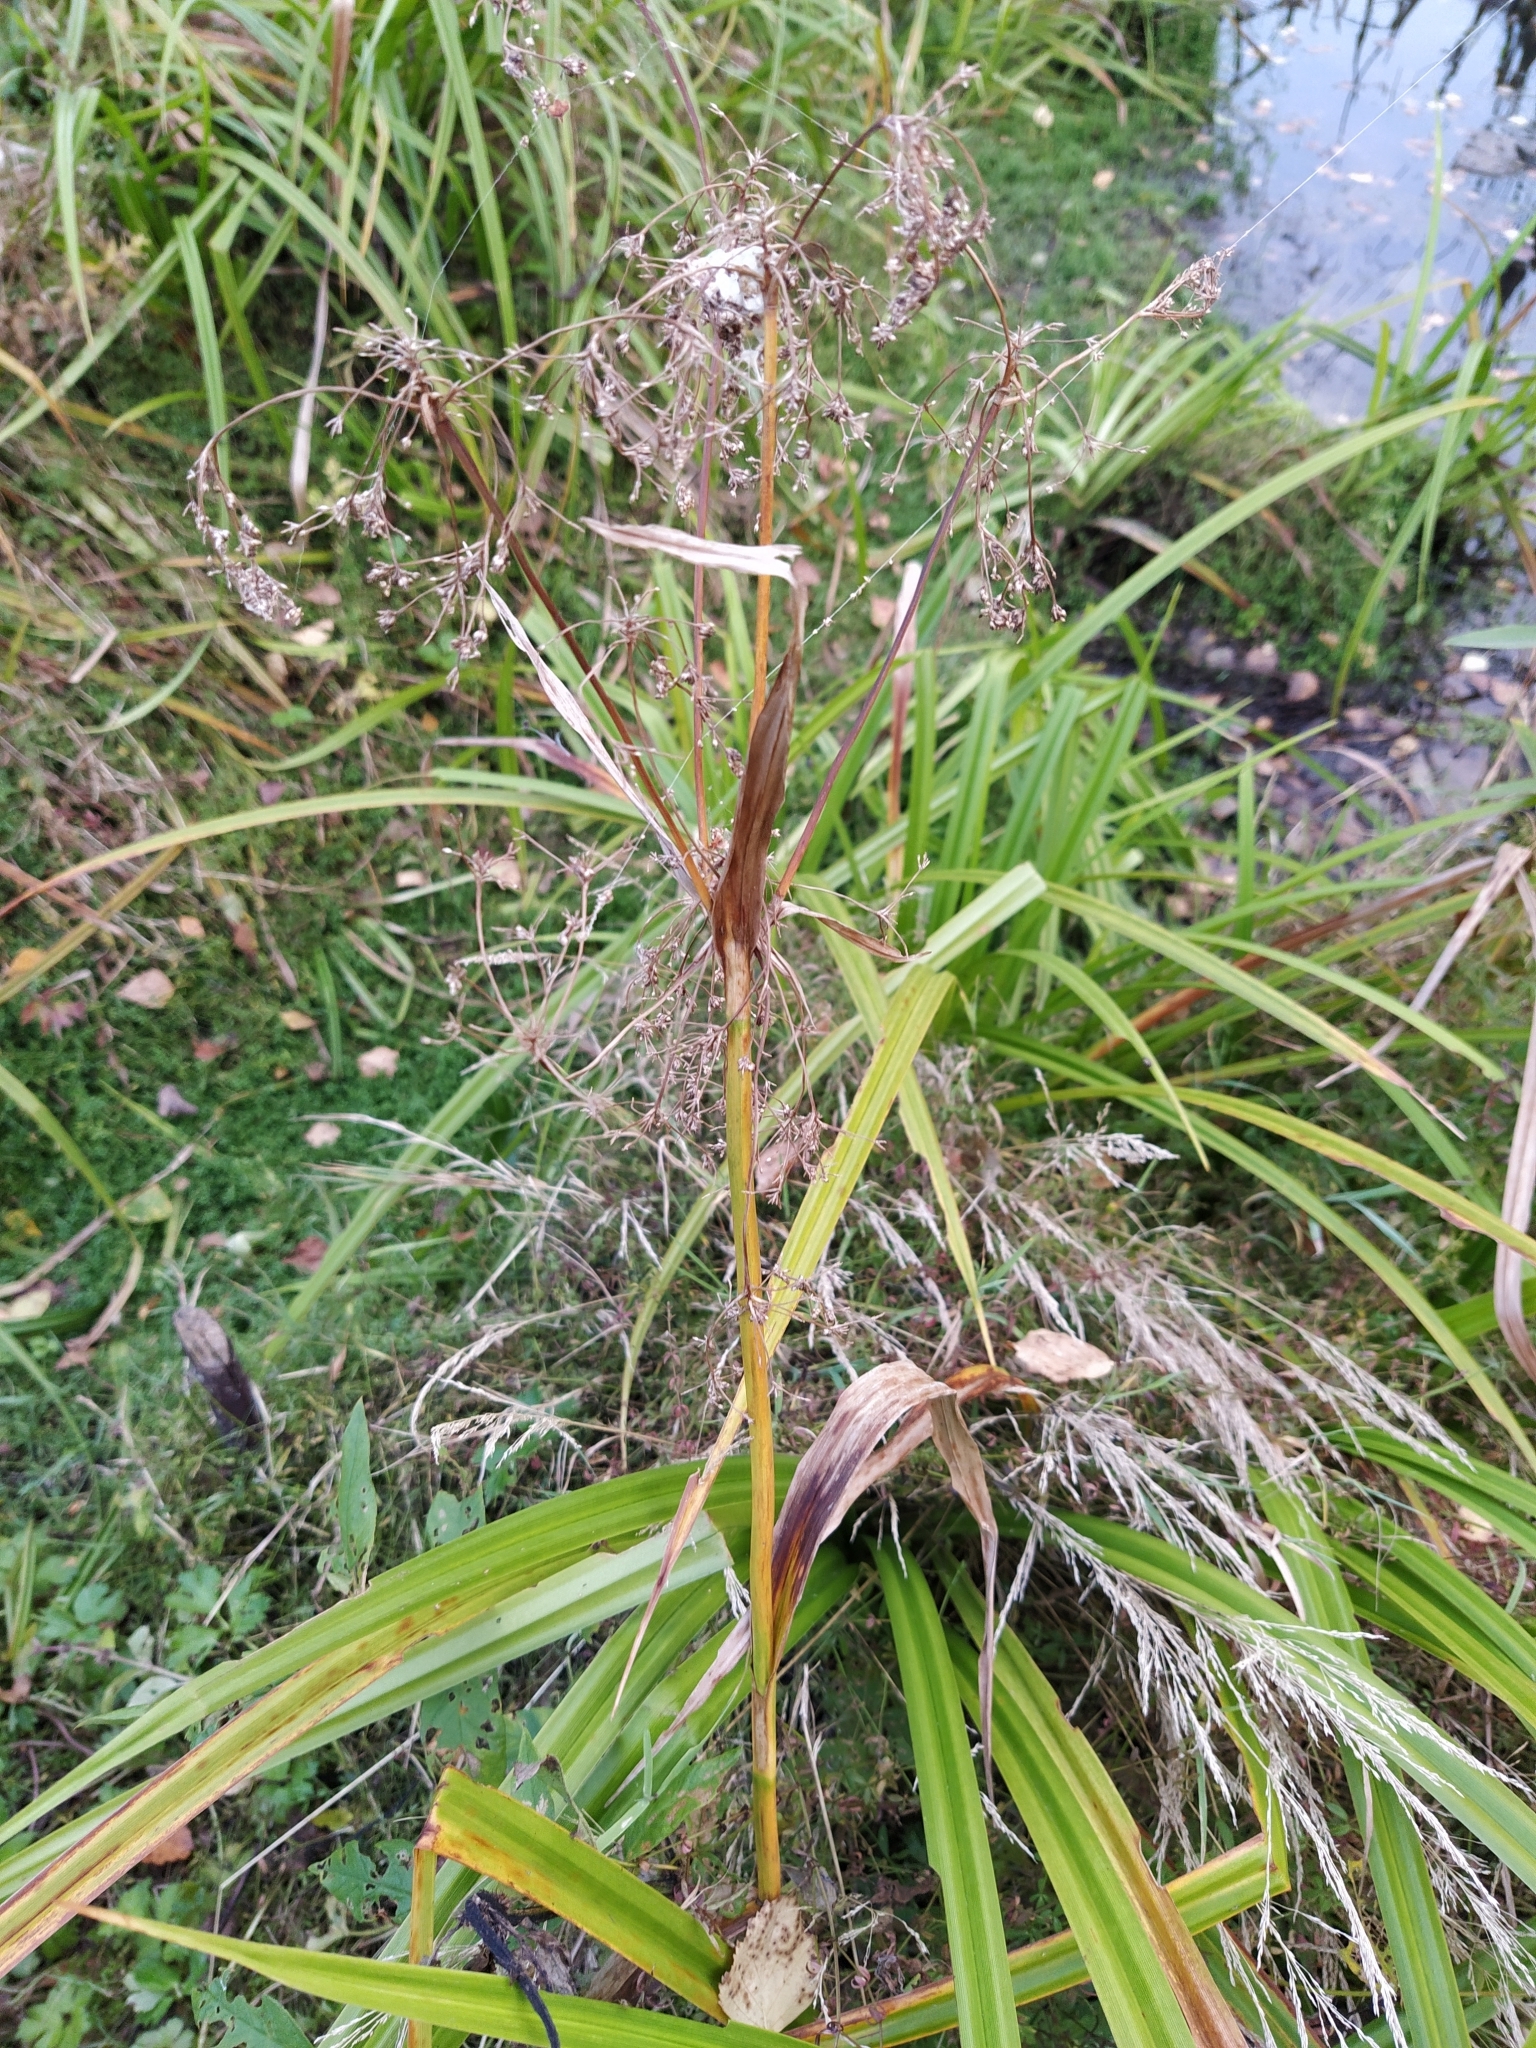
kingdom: Plantae
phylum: Tracheophyta
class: Liliopsida
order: Poales
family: Cyperaceae
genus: Scirpus
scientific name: Scirpus sylvaticus
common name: Wood club-rush
